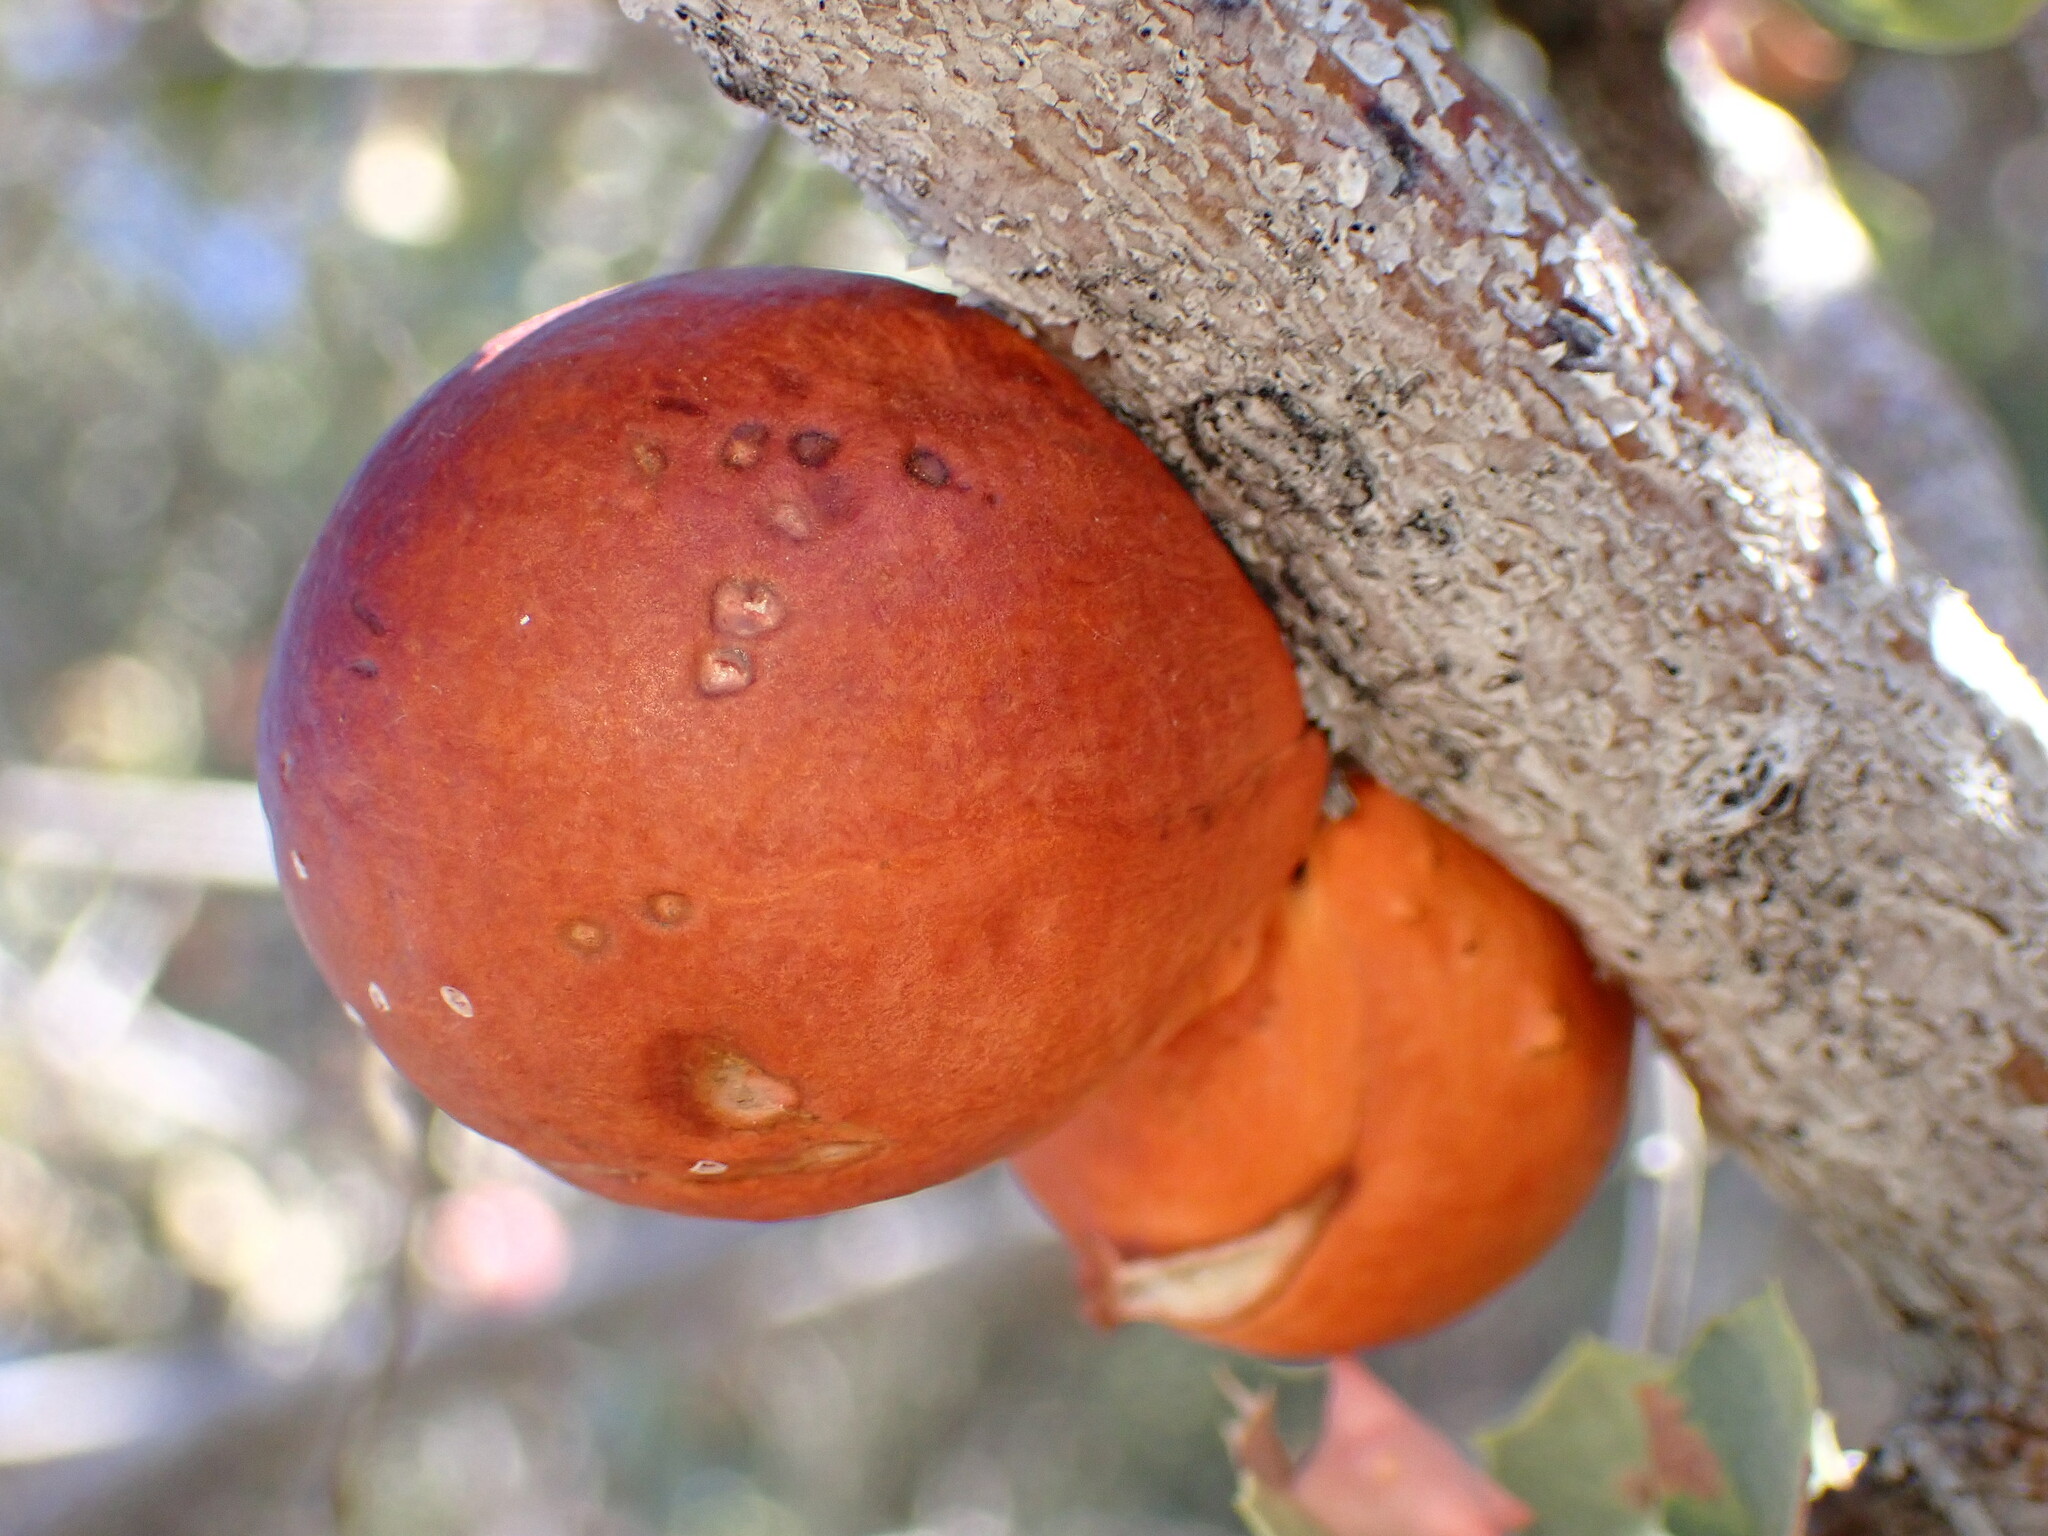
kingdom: Animalia
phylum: Arthropoda
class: Insecta
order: Hymenoptera
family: Cynipidae
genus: Andricus
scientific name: Andricus quercuscalifornicus
